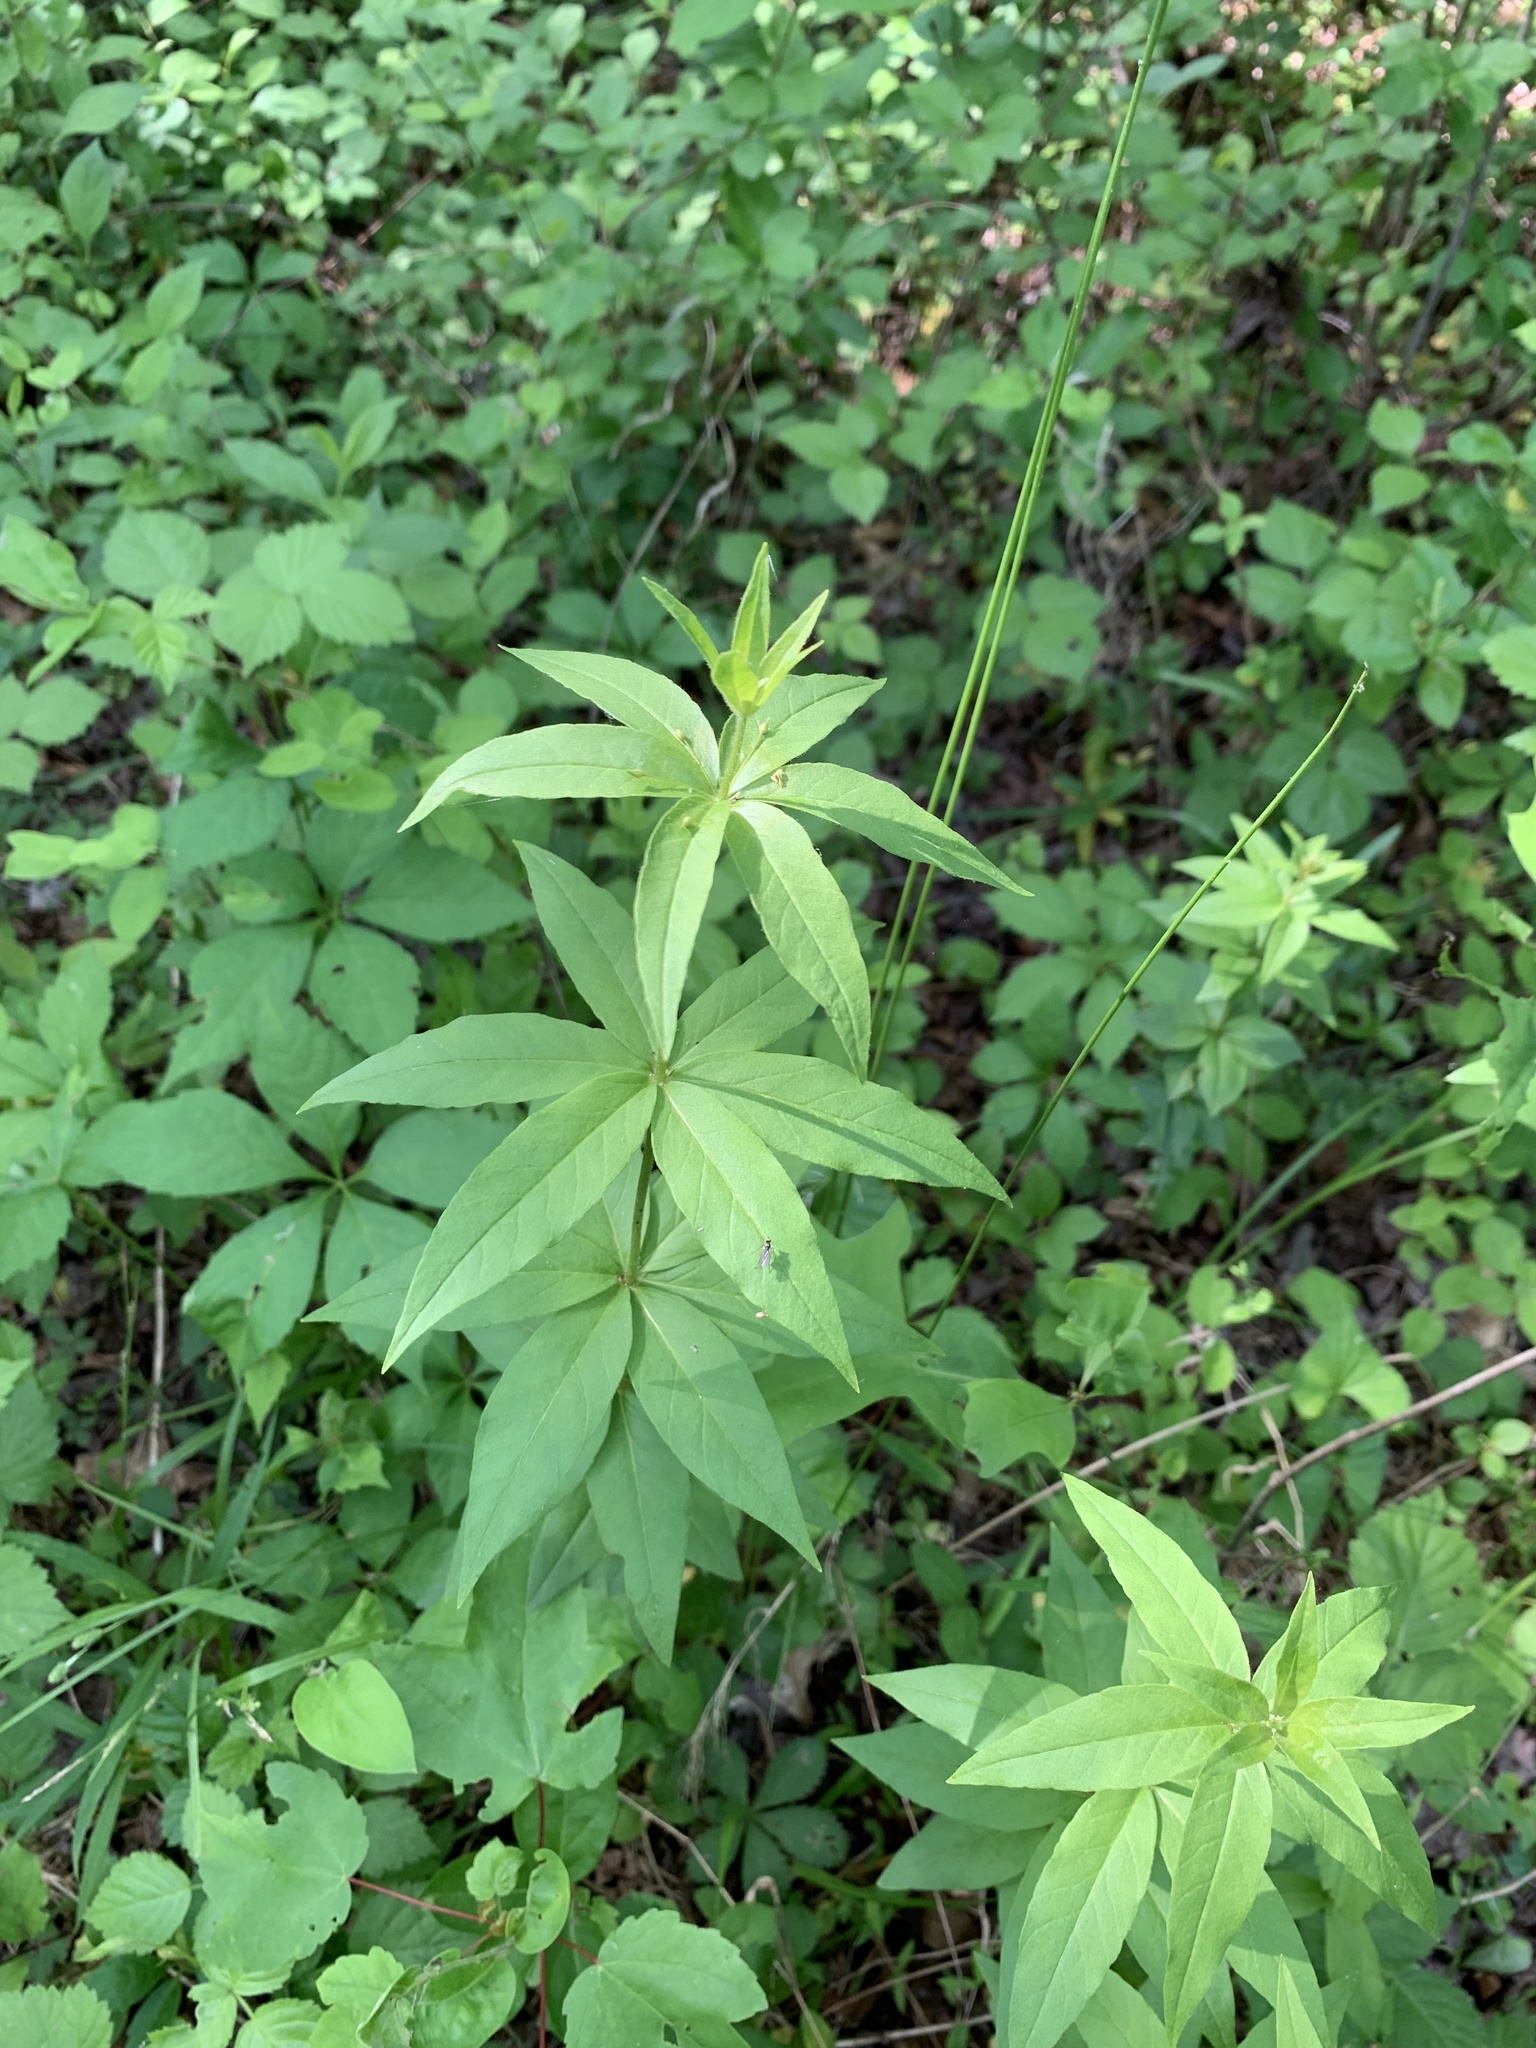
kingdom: Plantae
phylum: Tracheophyta
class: Magnoliopsida
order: Ericales
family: Primulaceae
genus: Lysimachia
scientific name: Lysimachia quadrifolia
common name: Whorled loosestrife
